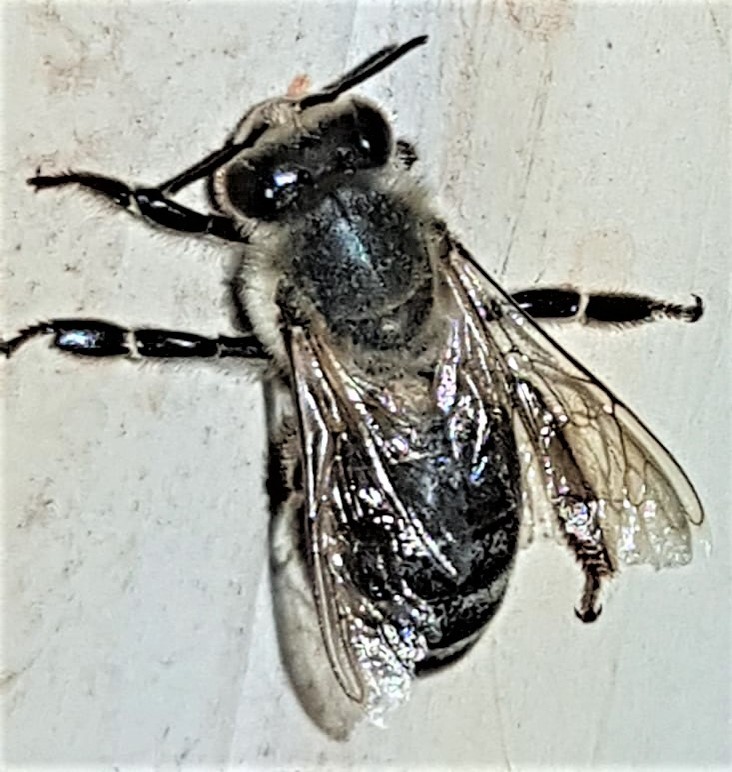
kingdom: Animalia
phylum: Arthropoda
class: Insecta
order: Hymenoptera
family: Apidae
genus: Apis
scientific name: Apis mellifera
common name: Honey bee
